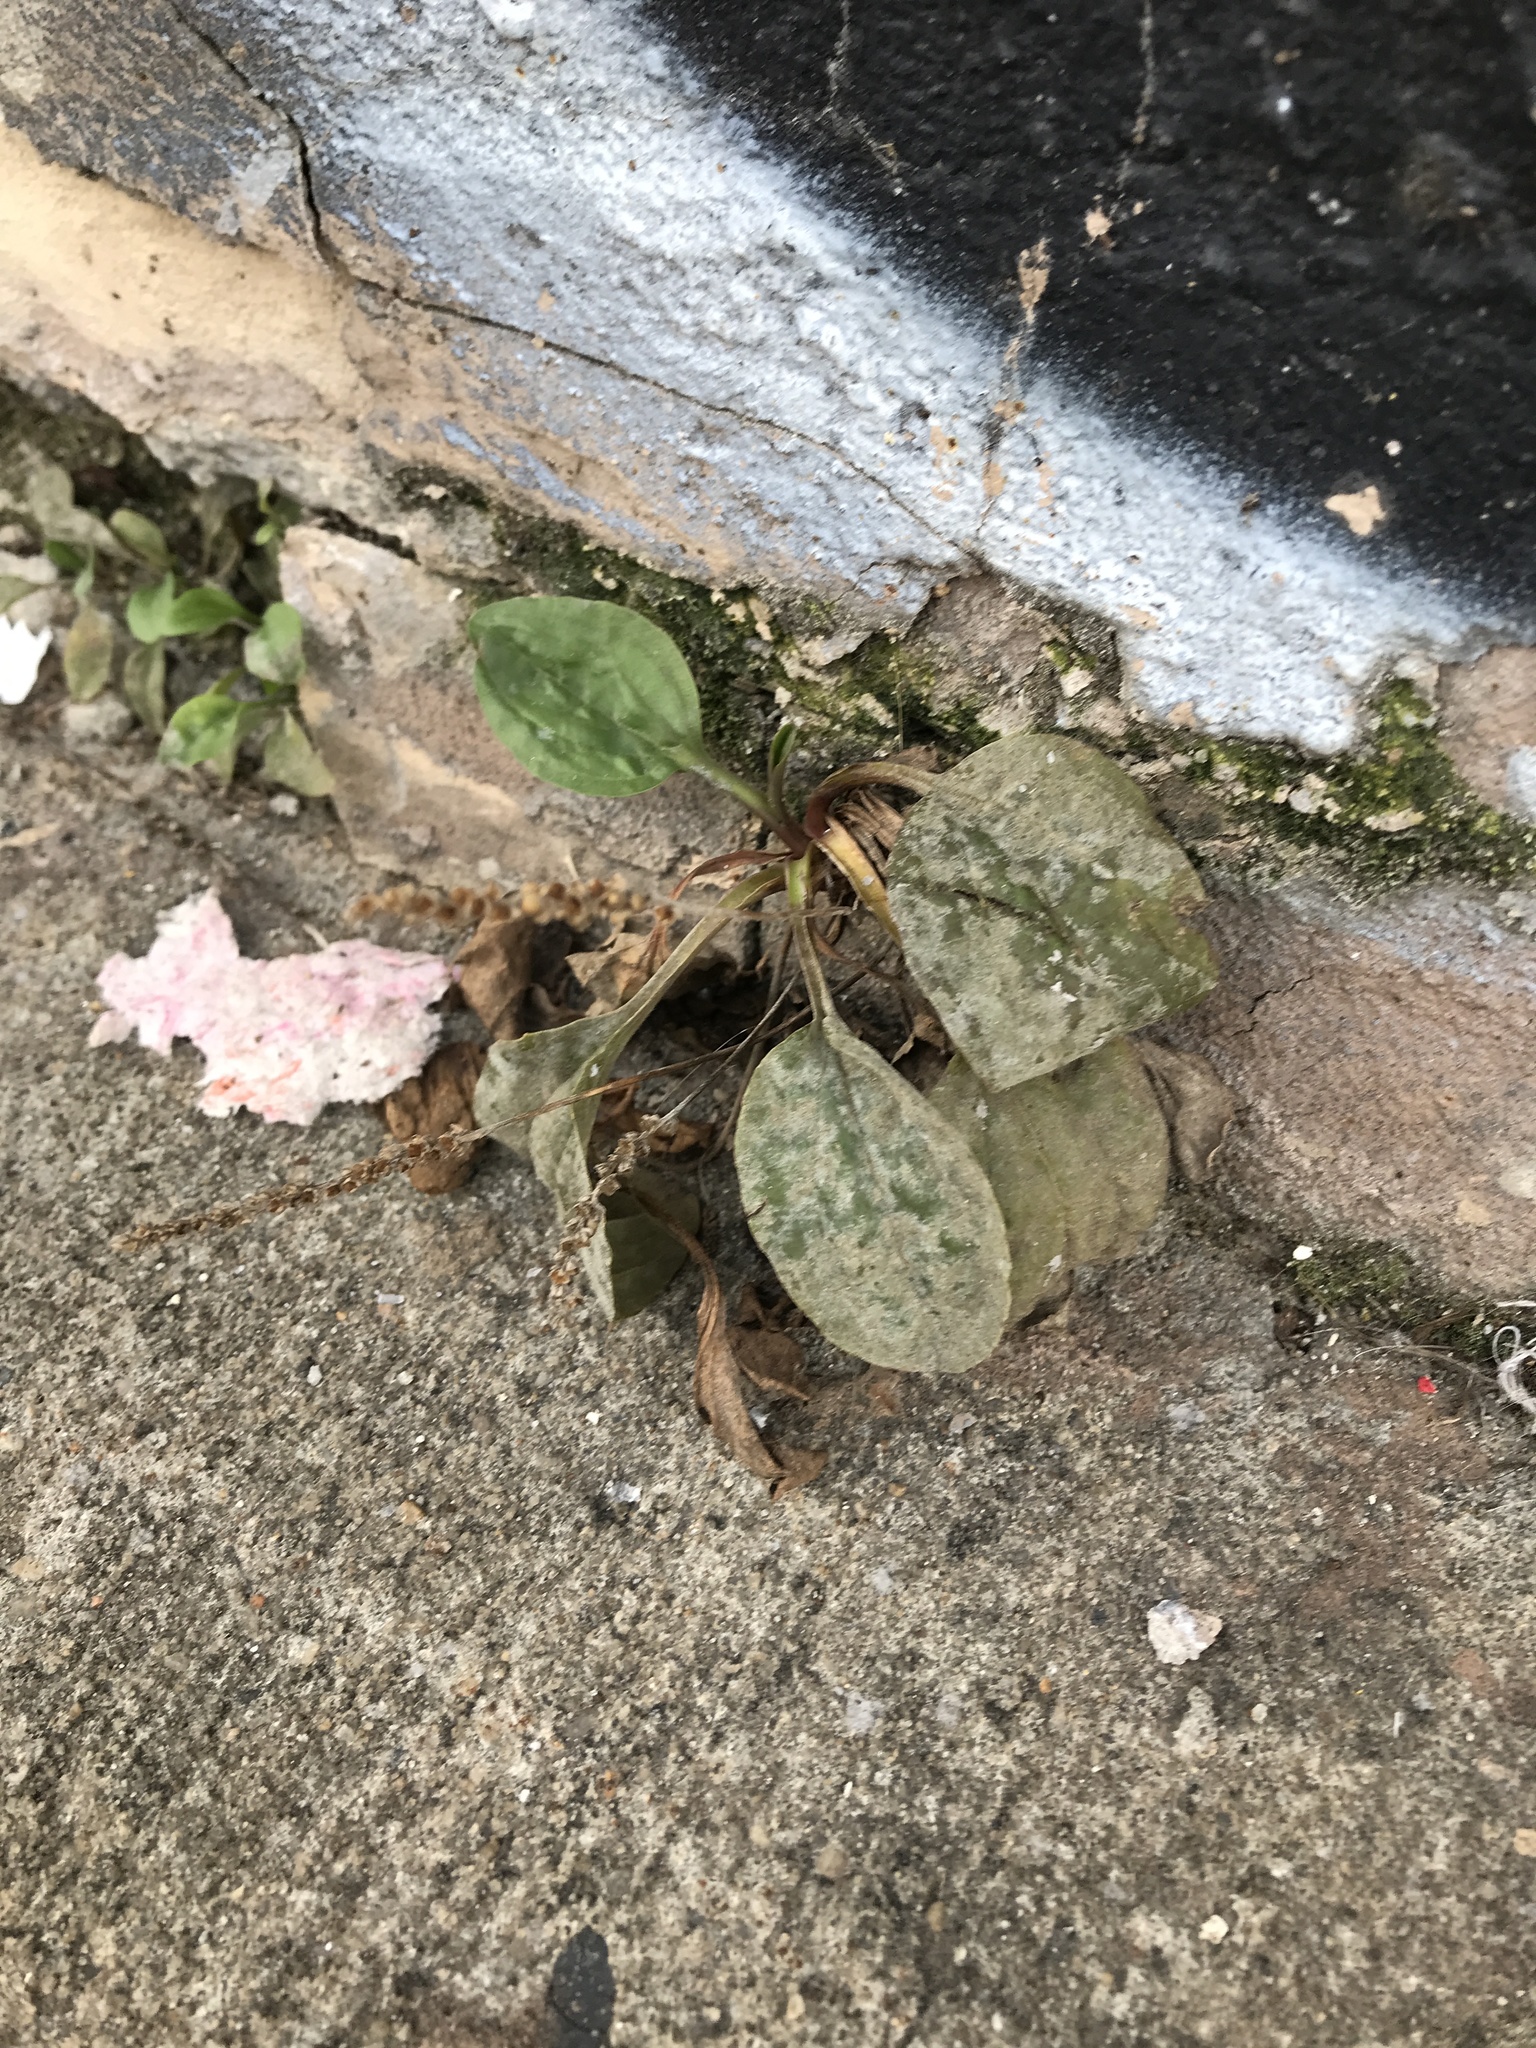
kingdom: Plantae
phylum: Tracheophyta
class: Magnoliopsida
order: Lamiales
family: Plantaginaceae
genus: Plantago
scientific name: Plantago rugelii
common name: American plantain
